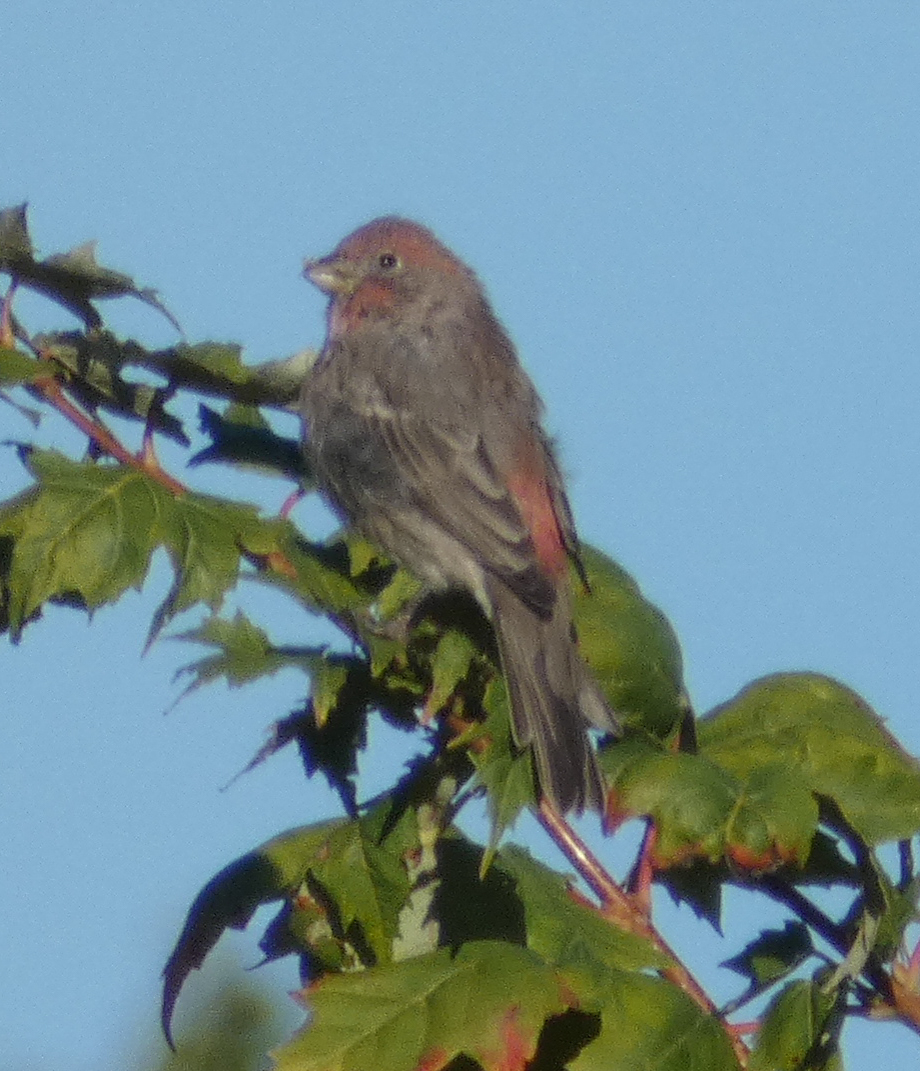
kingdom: Animalia
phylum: Chordata
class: Aves
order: Passeriformes
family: Fringillidae
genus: Haemorhous
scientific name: Haemorhous mexicanus
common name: House finch
